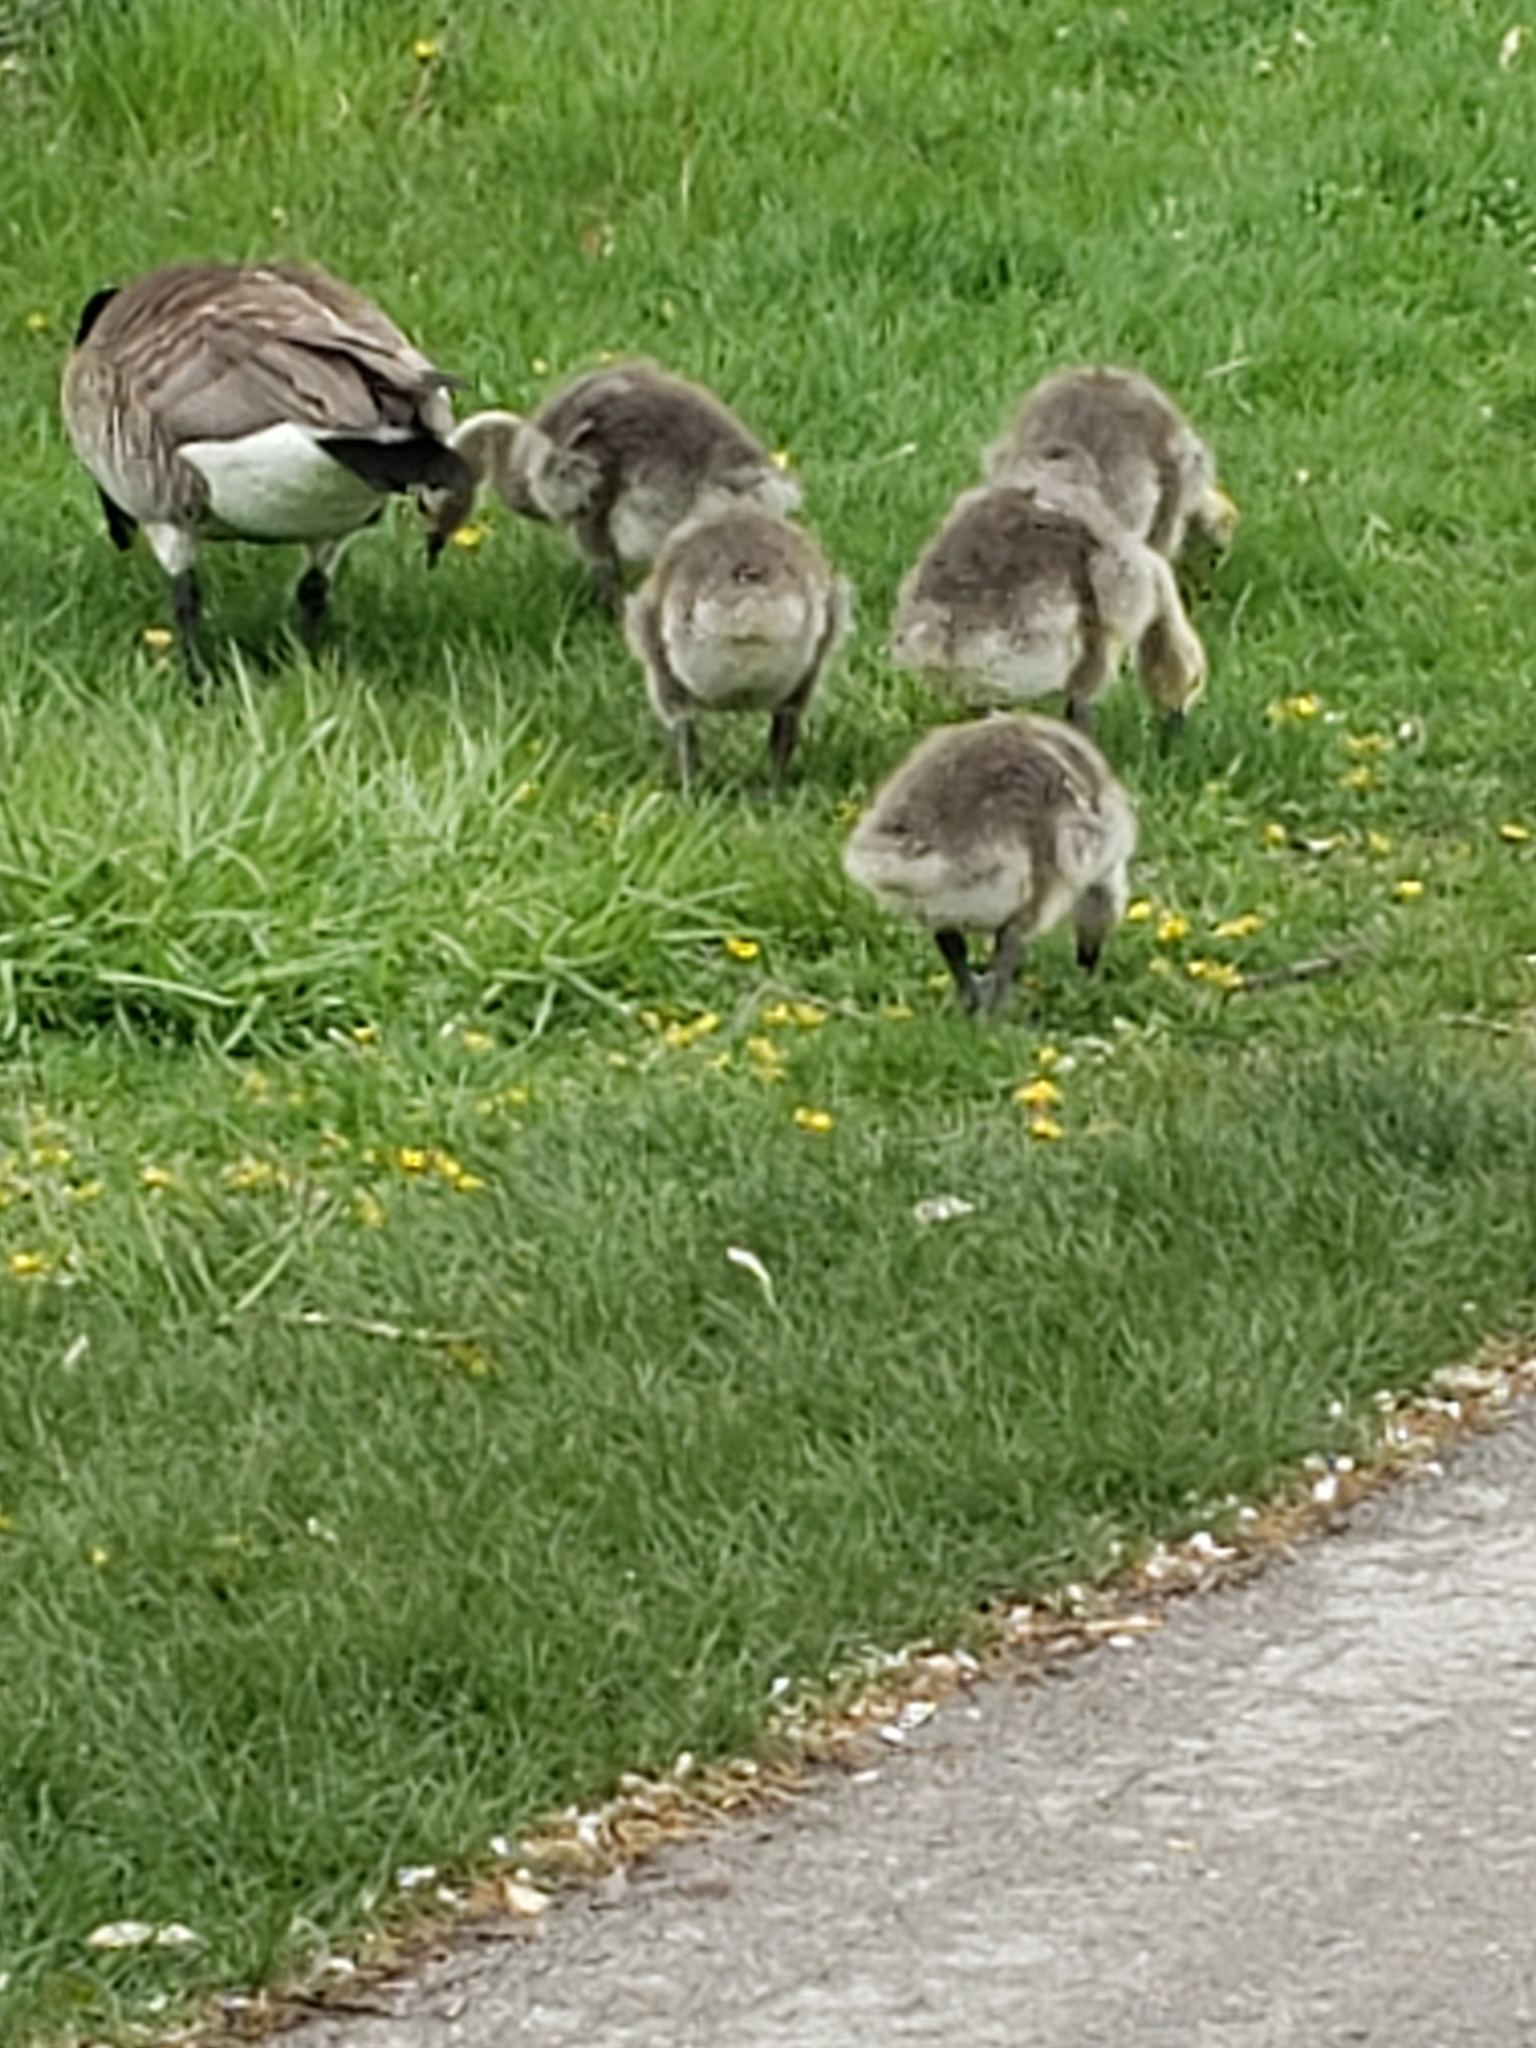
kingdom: Animalia
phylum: Chordata
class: Aves
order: Anseriformes
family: Anatidae
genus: Branta
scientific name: Branta canadensis
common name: Canada goose
